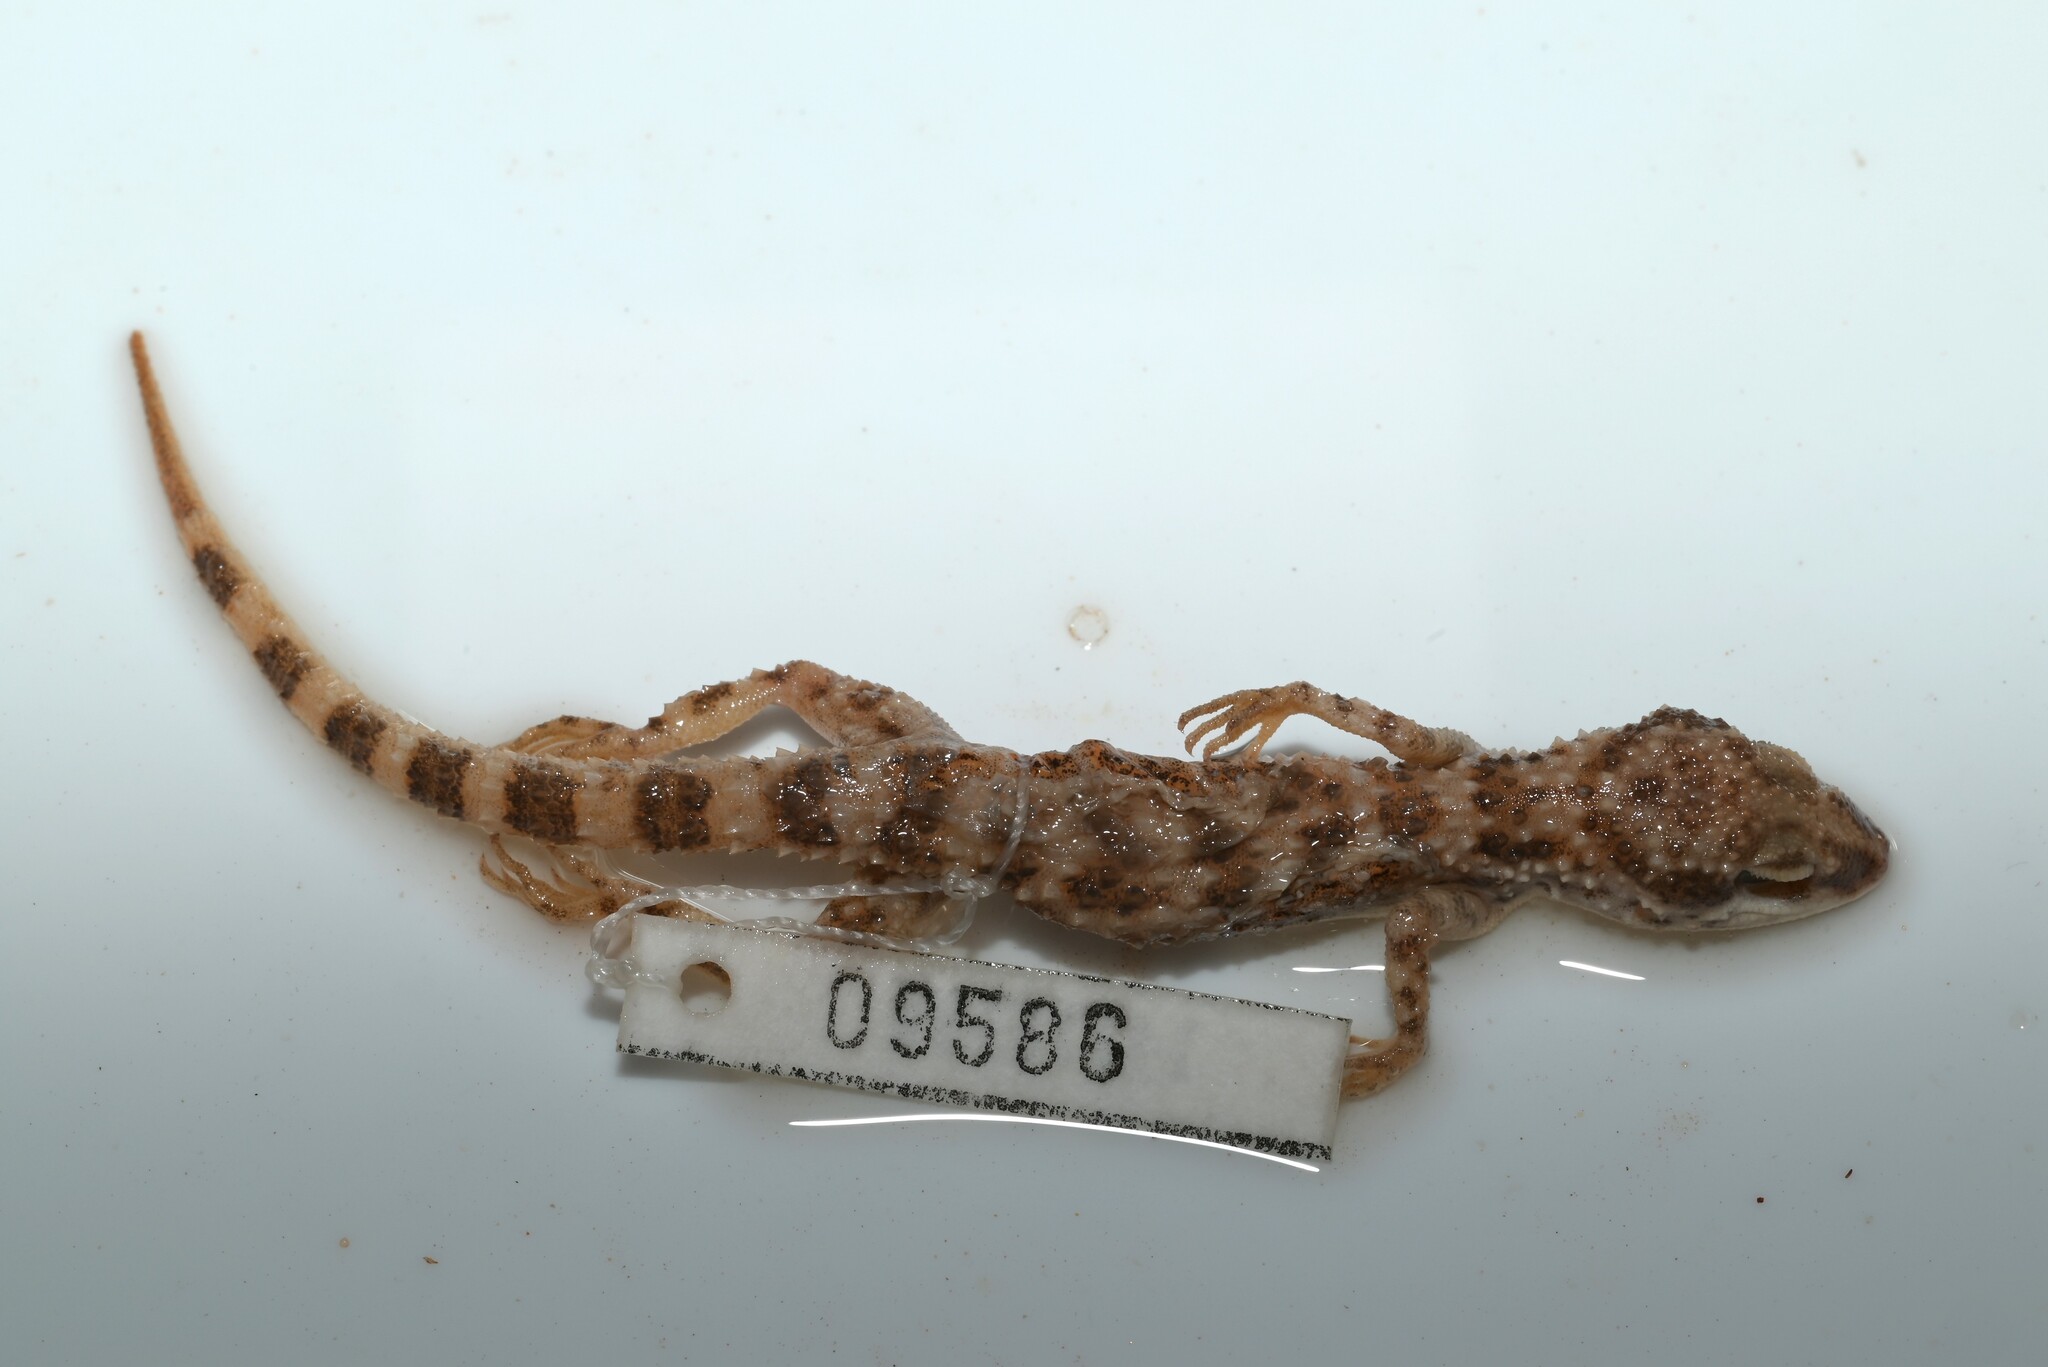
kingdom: Animalia
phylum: Chordata
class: Squamata
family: Gekkonidae
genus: Bunopus
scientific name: Bunopus tuberculatus
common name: Southern tuberculated gecko
